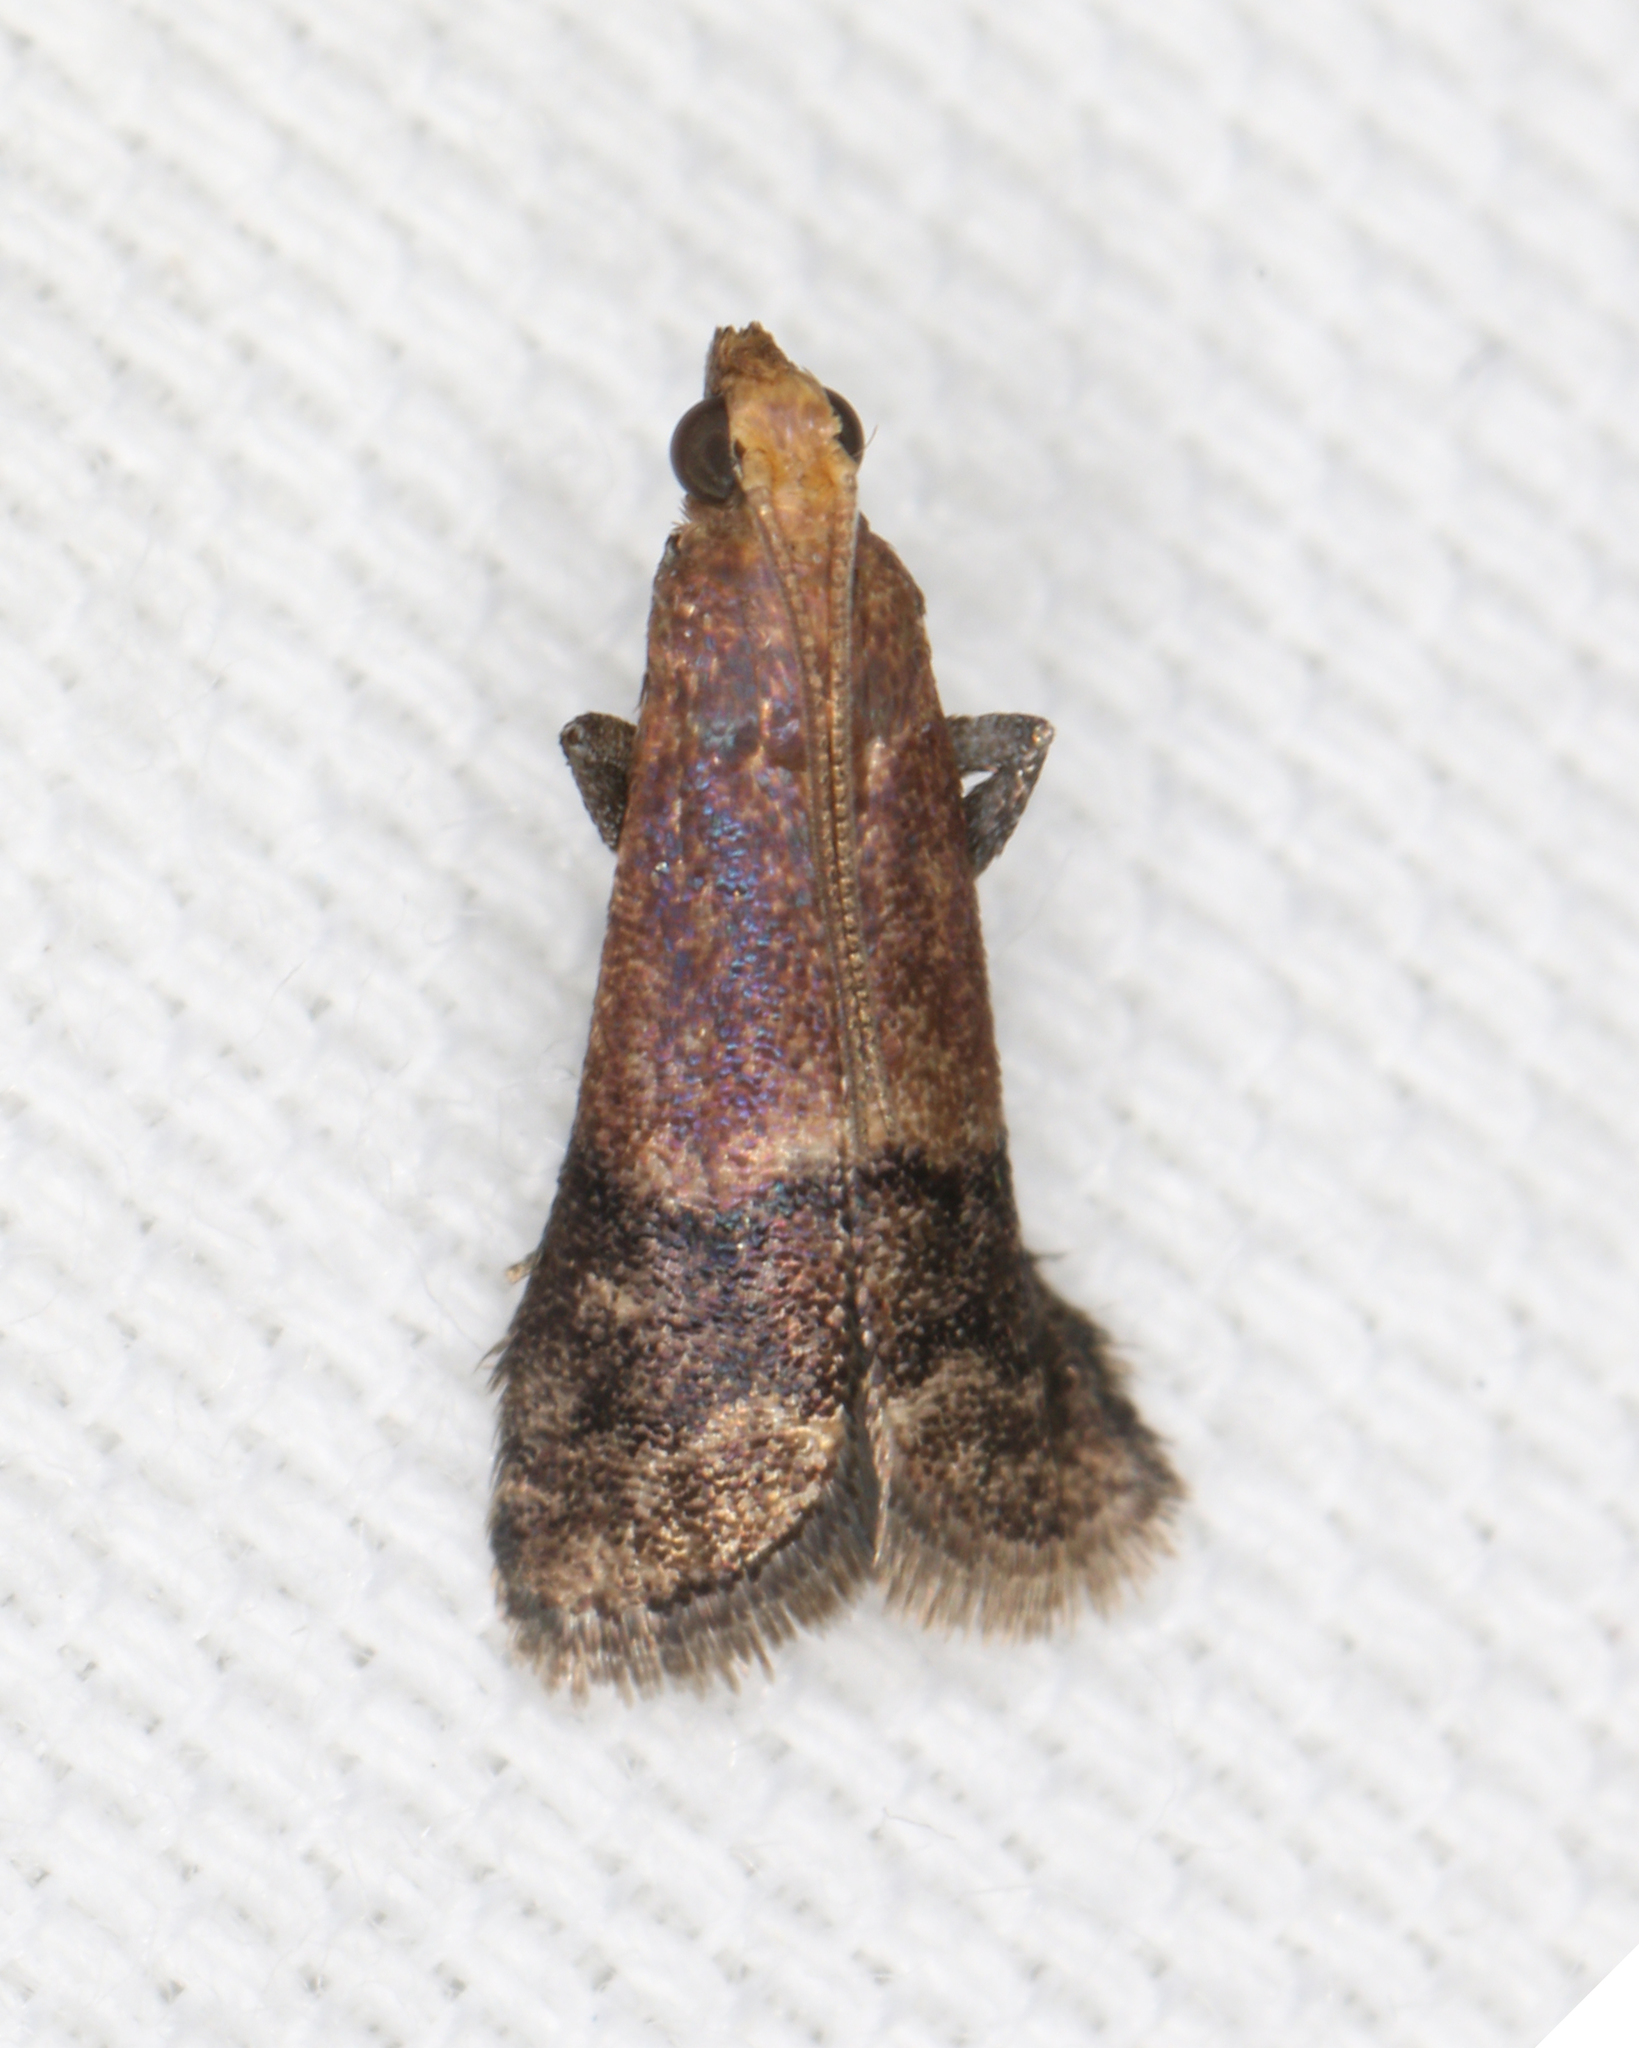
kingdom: Animalia
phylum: Arthropoda
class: Insecta
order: Lepidoptera
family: Pyralidae
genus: Eulogia
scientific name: Eulogia ochrifrontella
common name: Broad-banded eulogia moth
